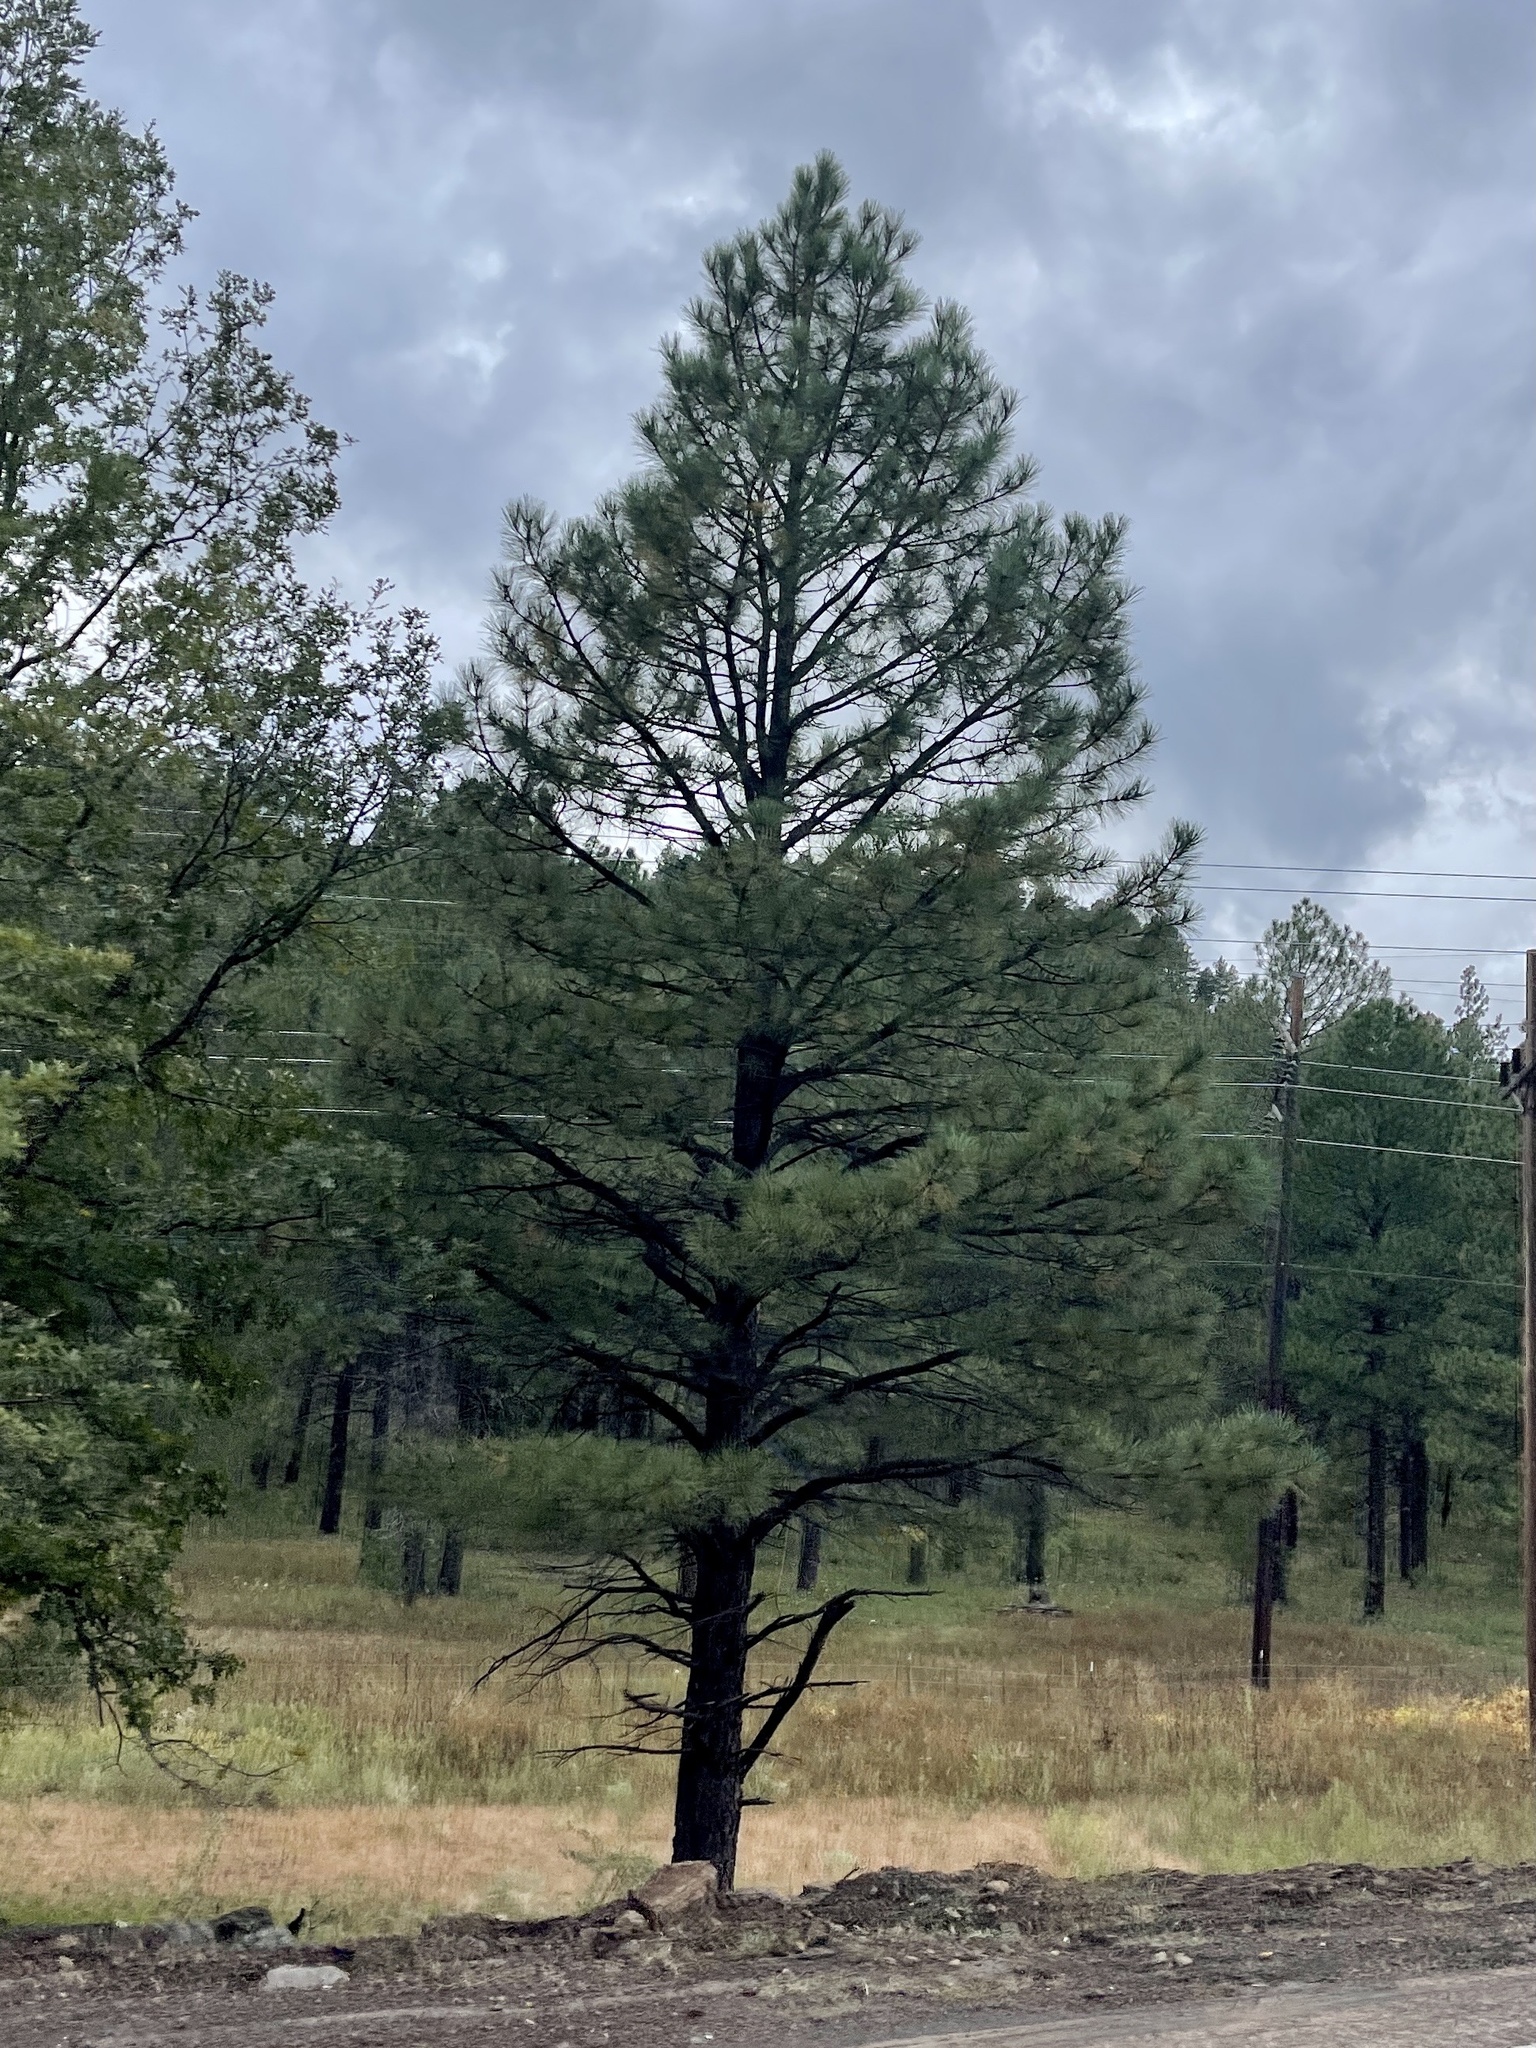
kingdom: Plantae
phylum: Tracheophyta
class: Pinopsida
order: Pinales
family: Pinaceae
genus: Pinus
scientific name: Pinus ponderosa
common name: Western yellow-pine
